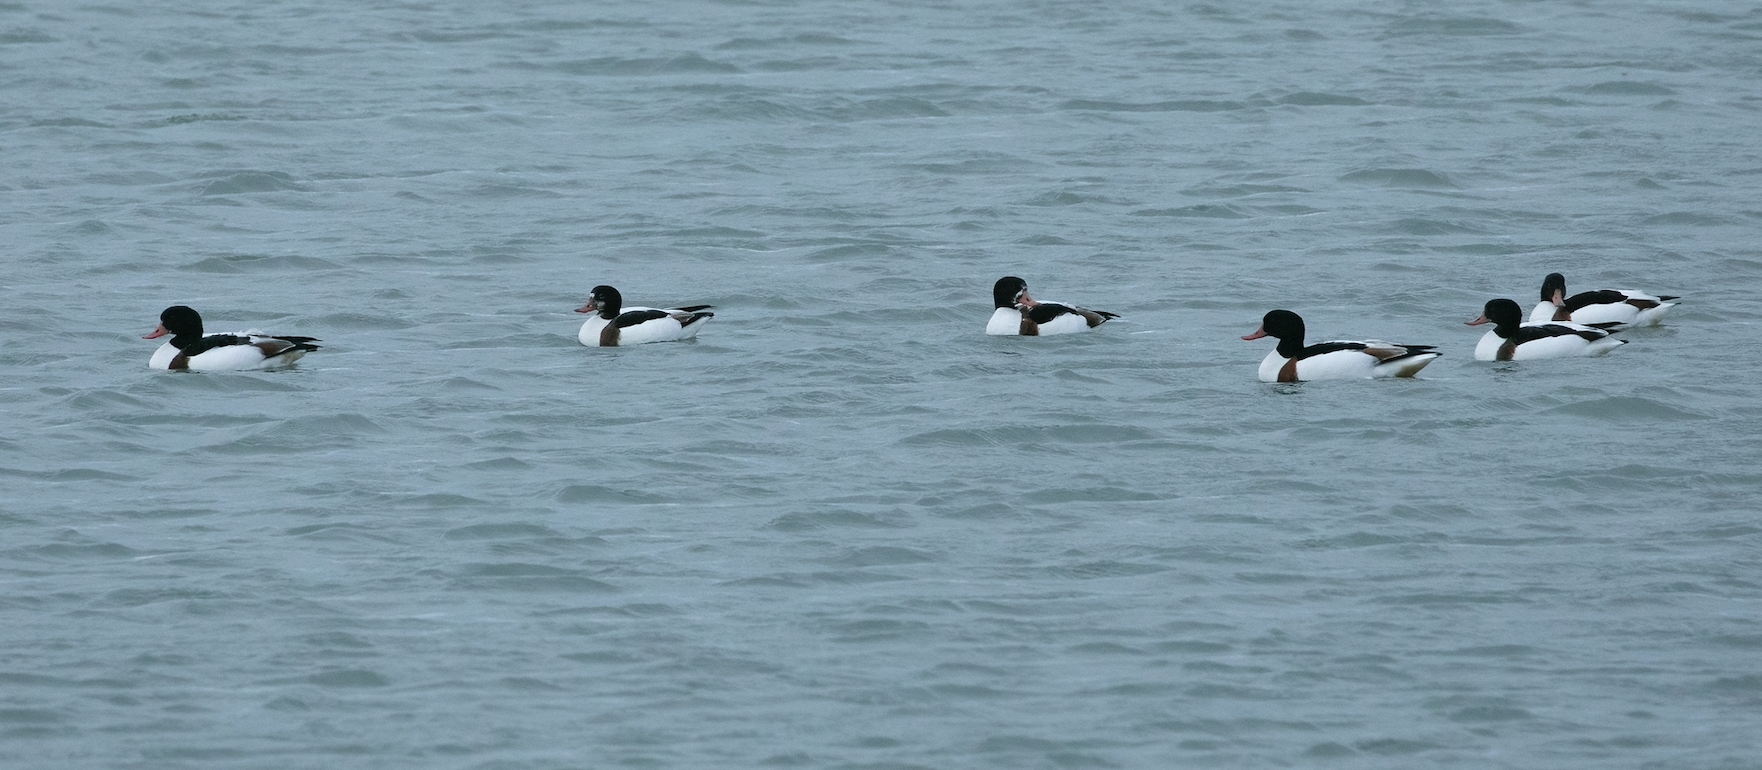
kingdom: Animalia
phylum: Chordata
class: Aves
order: Anseriformes
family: Anatidae
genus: Tadorna
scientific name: Tadorna tadorna
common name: Common shelduck
